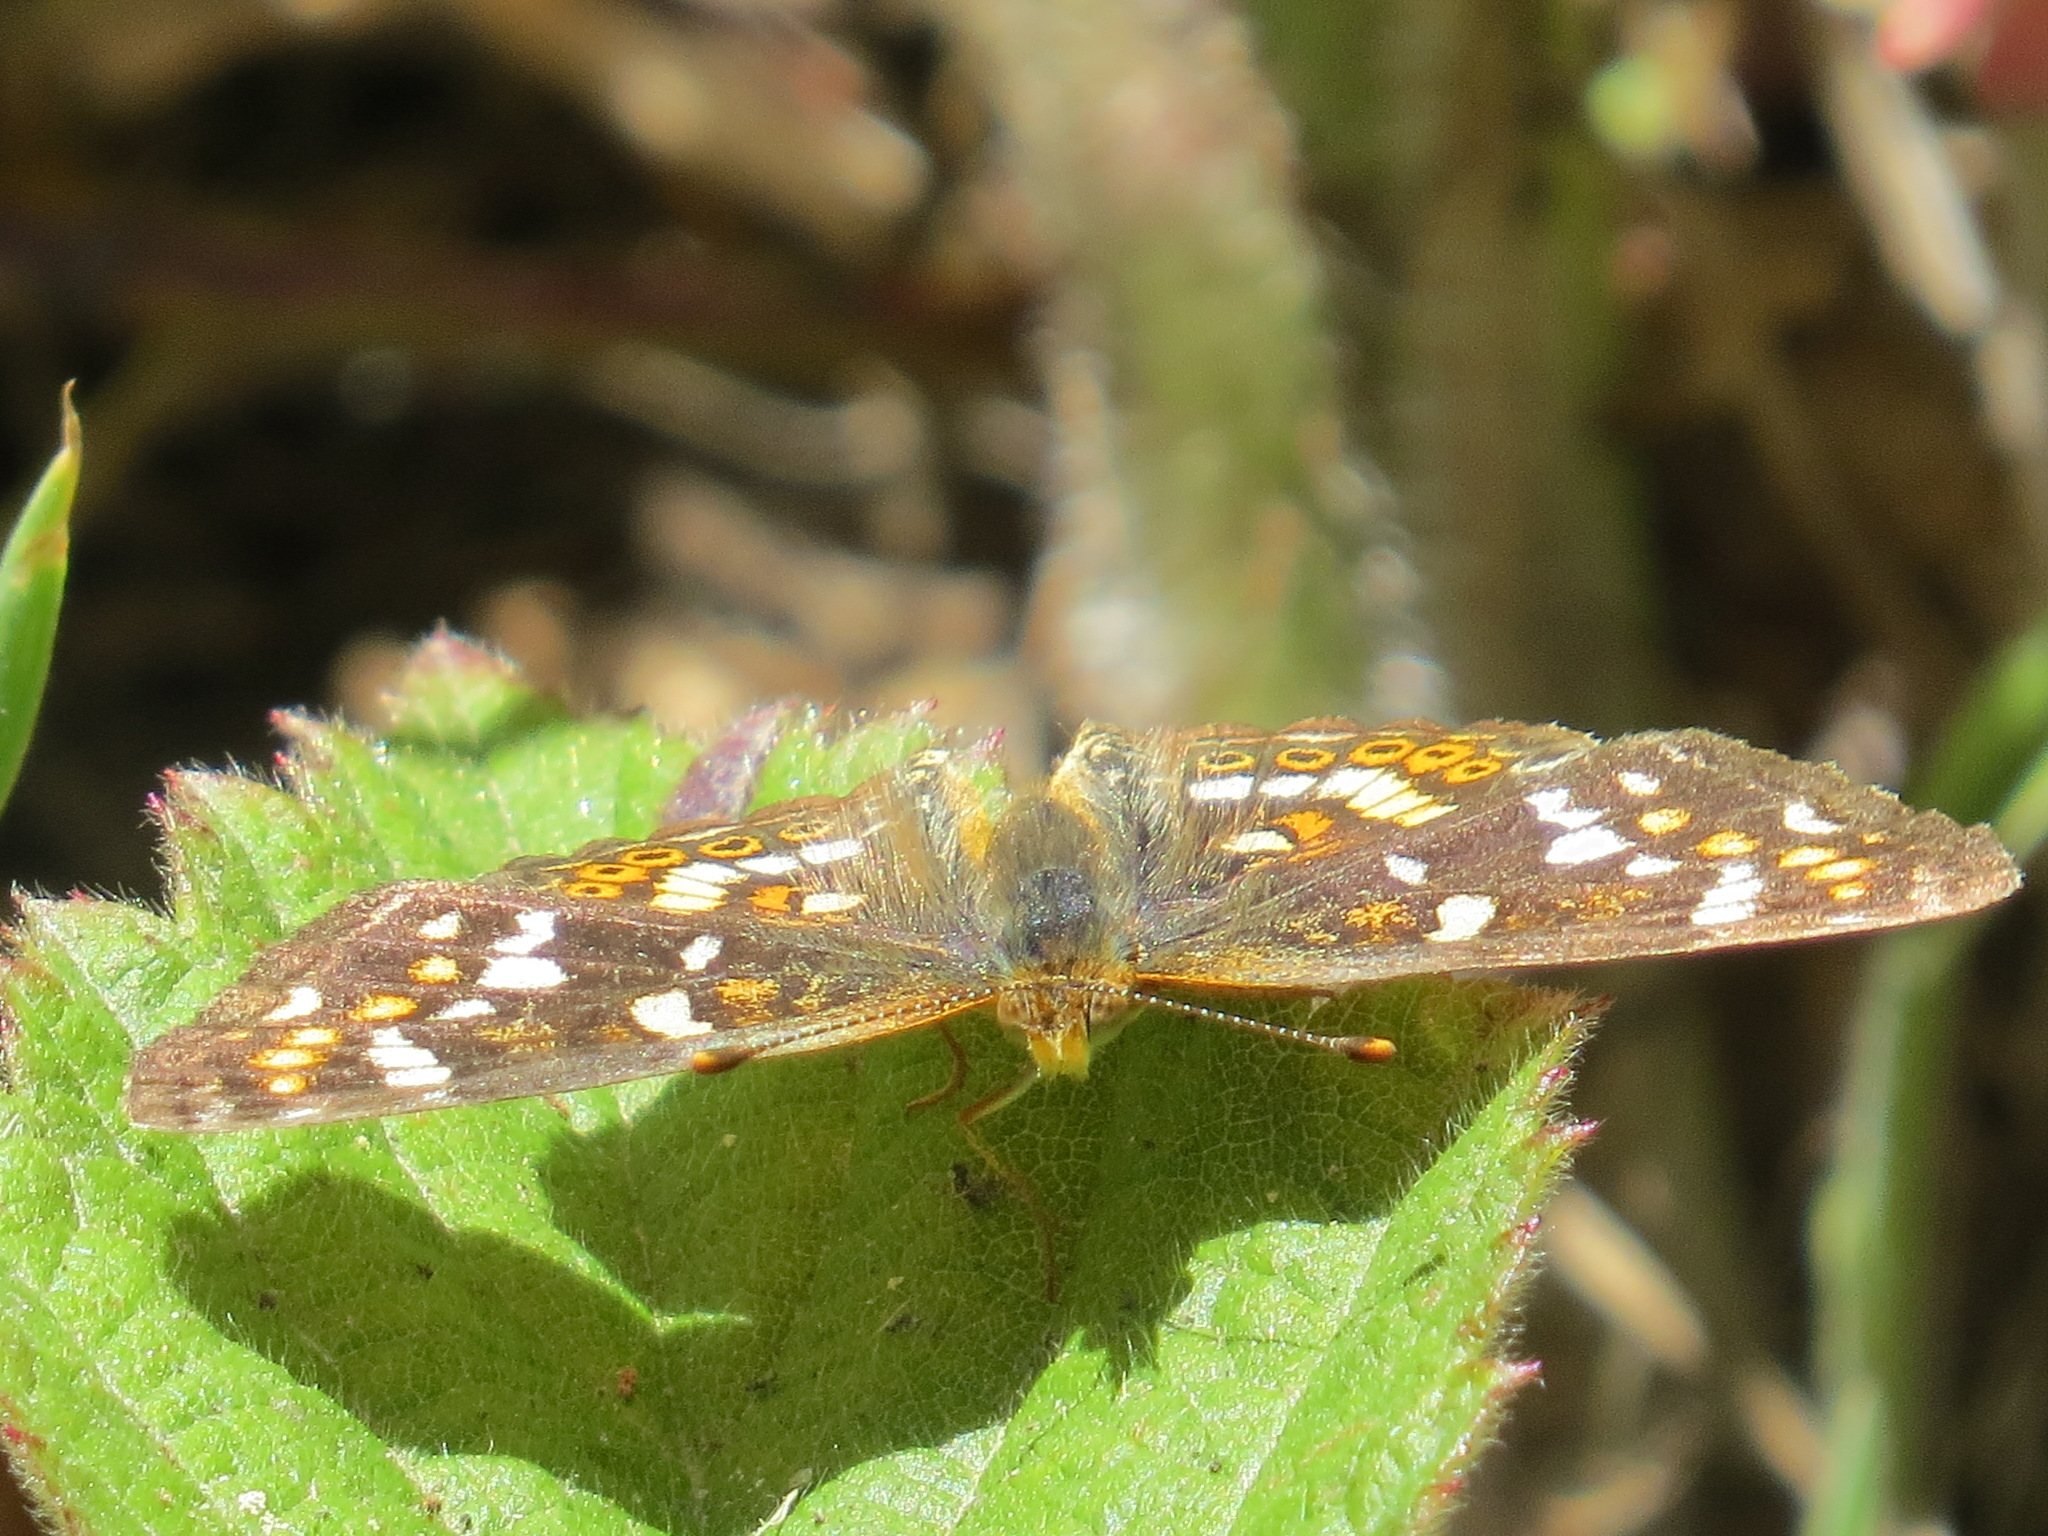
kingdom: Animalia
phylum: Arthropoda
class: Insecta
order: Lepidoptera
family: Nymphalidae
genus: Phyciodes
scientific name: Phyciodes tharos
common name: Pearl crescent
